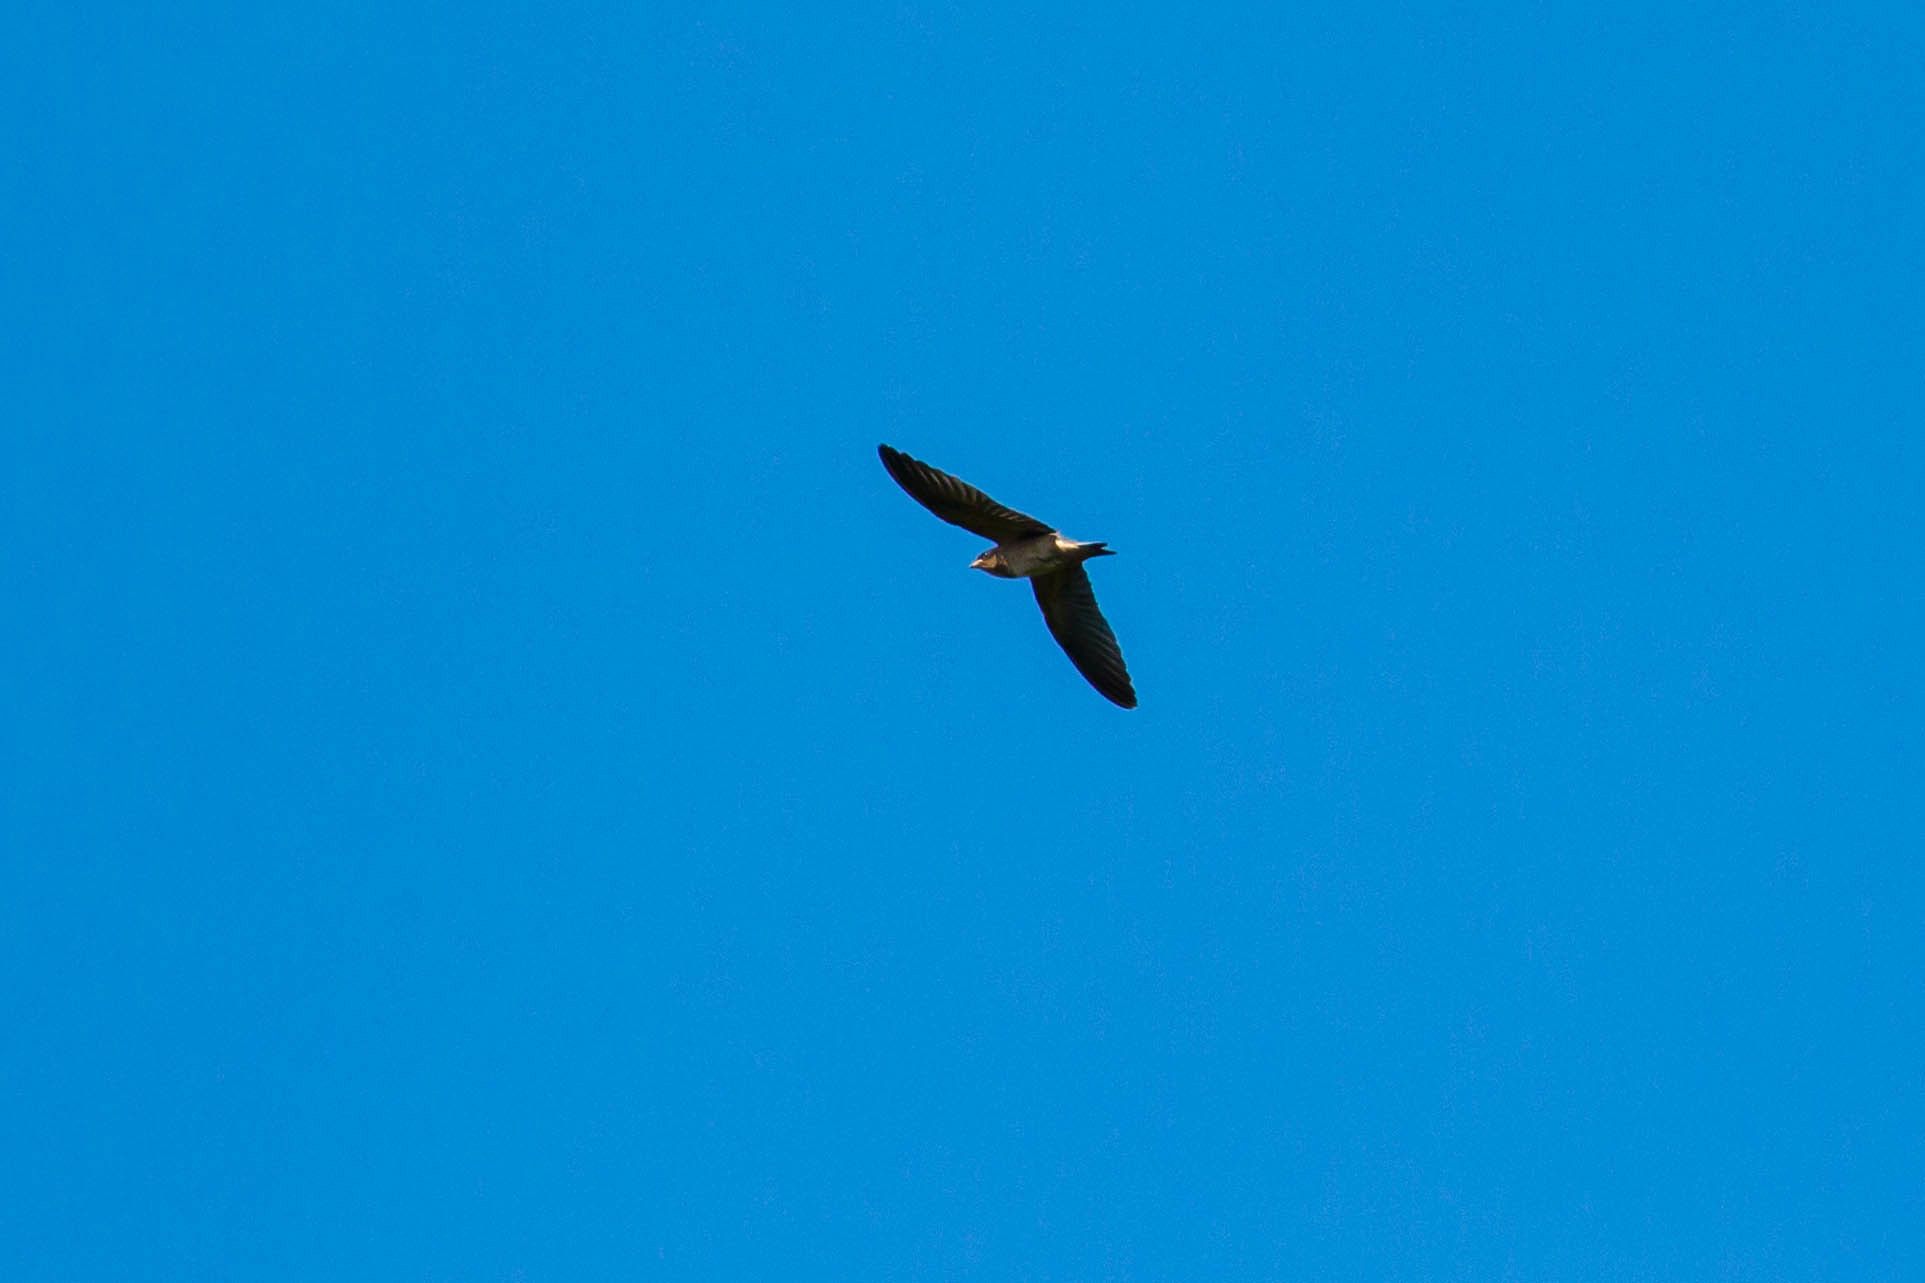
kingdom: Animalia
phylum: Chordata
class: Aves
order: Passeriformes
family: Hirundinidae
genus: Petrochelidon
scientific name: Petrochelidon pyrrhonota
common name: American cliff swallow
